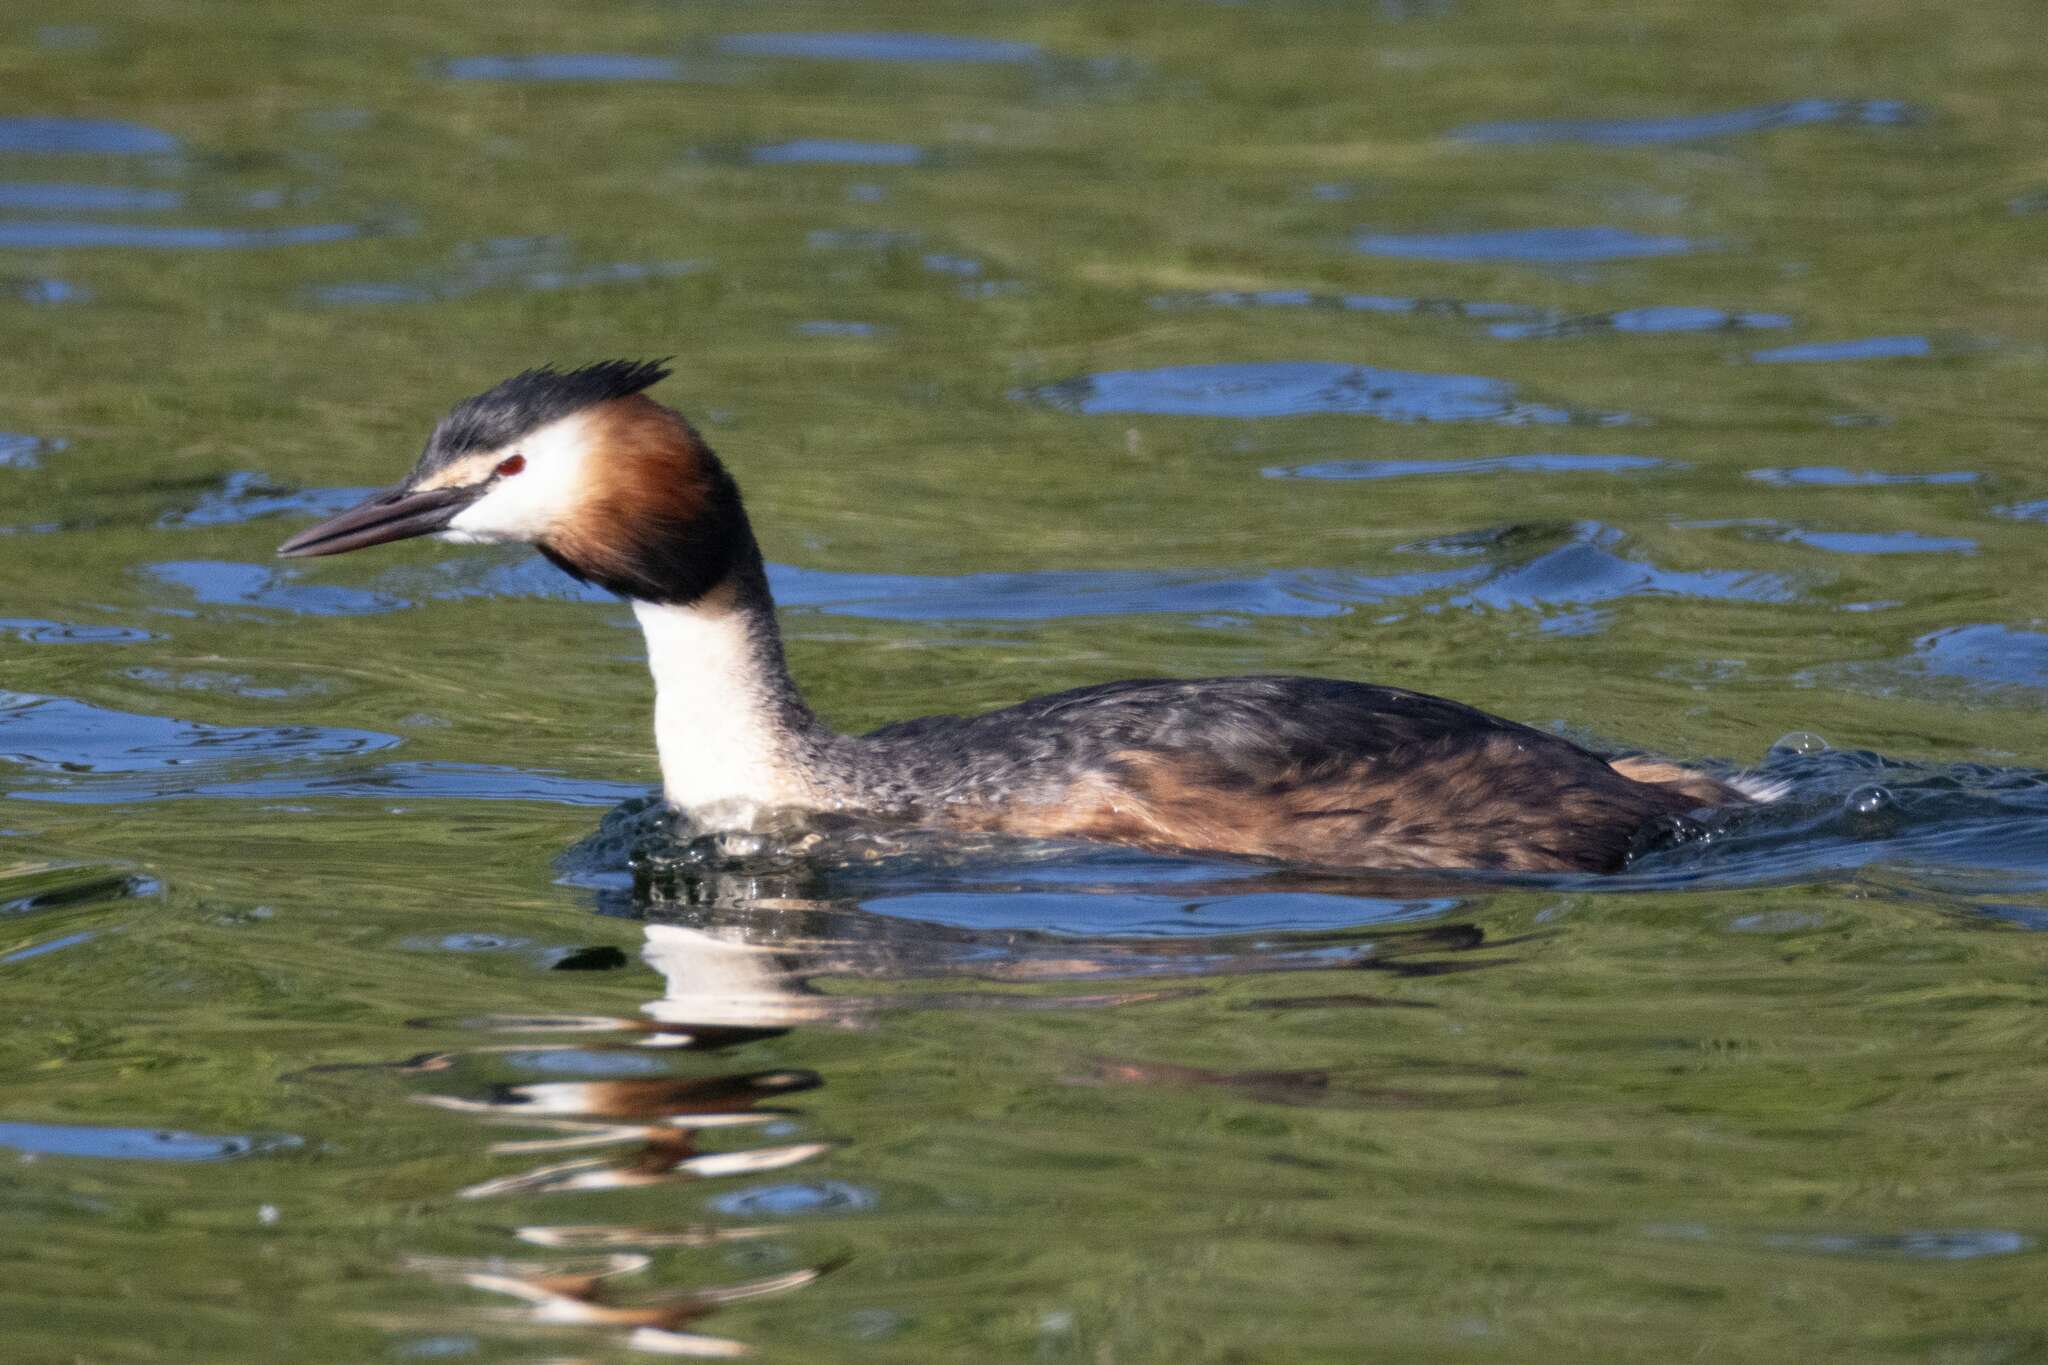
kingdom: Animalia
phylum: Chordata
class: Aves
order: Podicipediformes
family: Podicipedidae
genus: Podiceps
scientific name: Podiceps cristatus
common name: Great crested grebe
